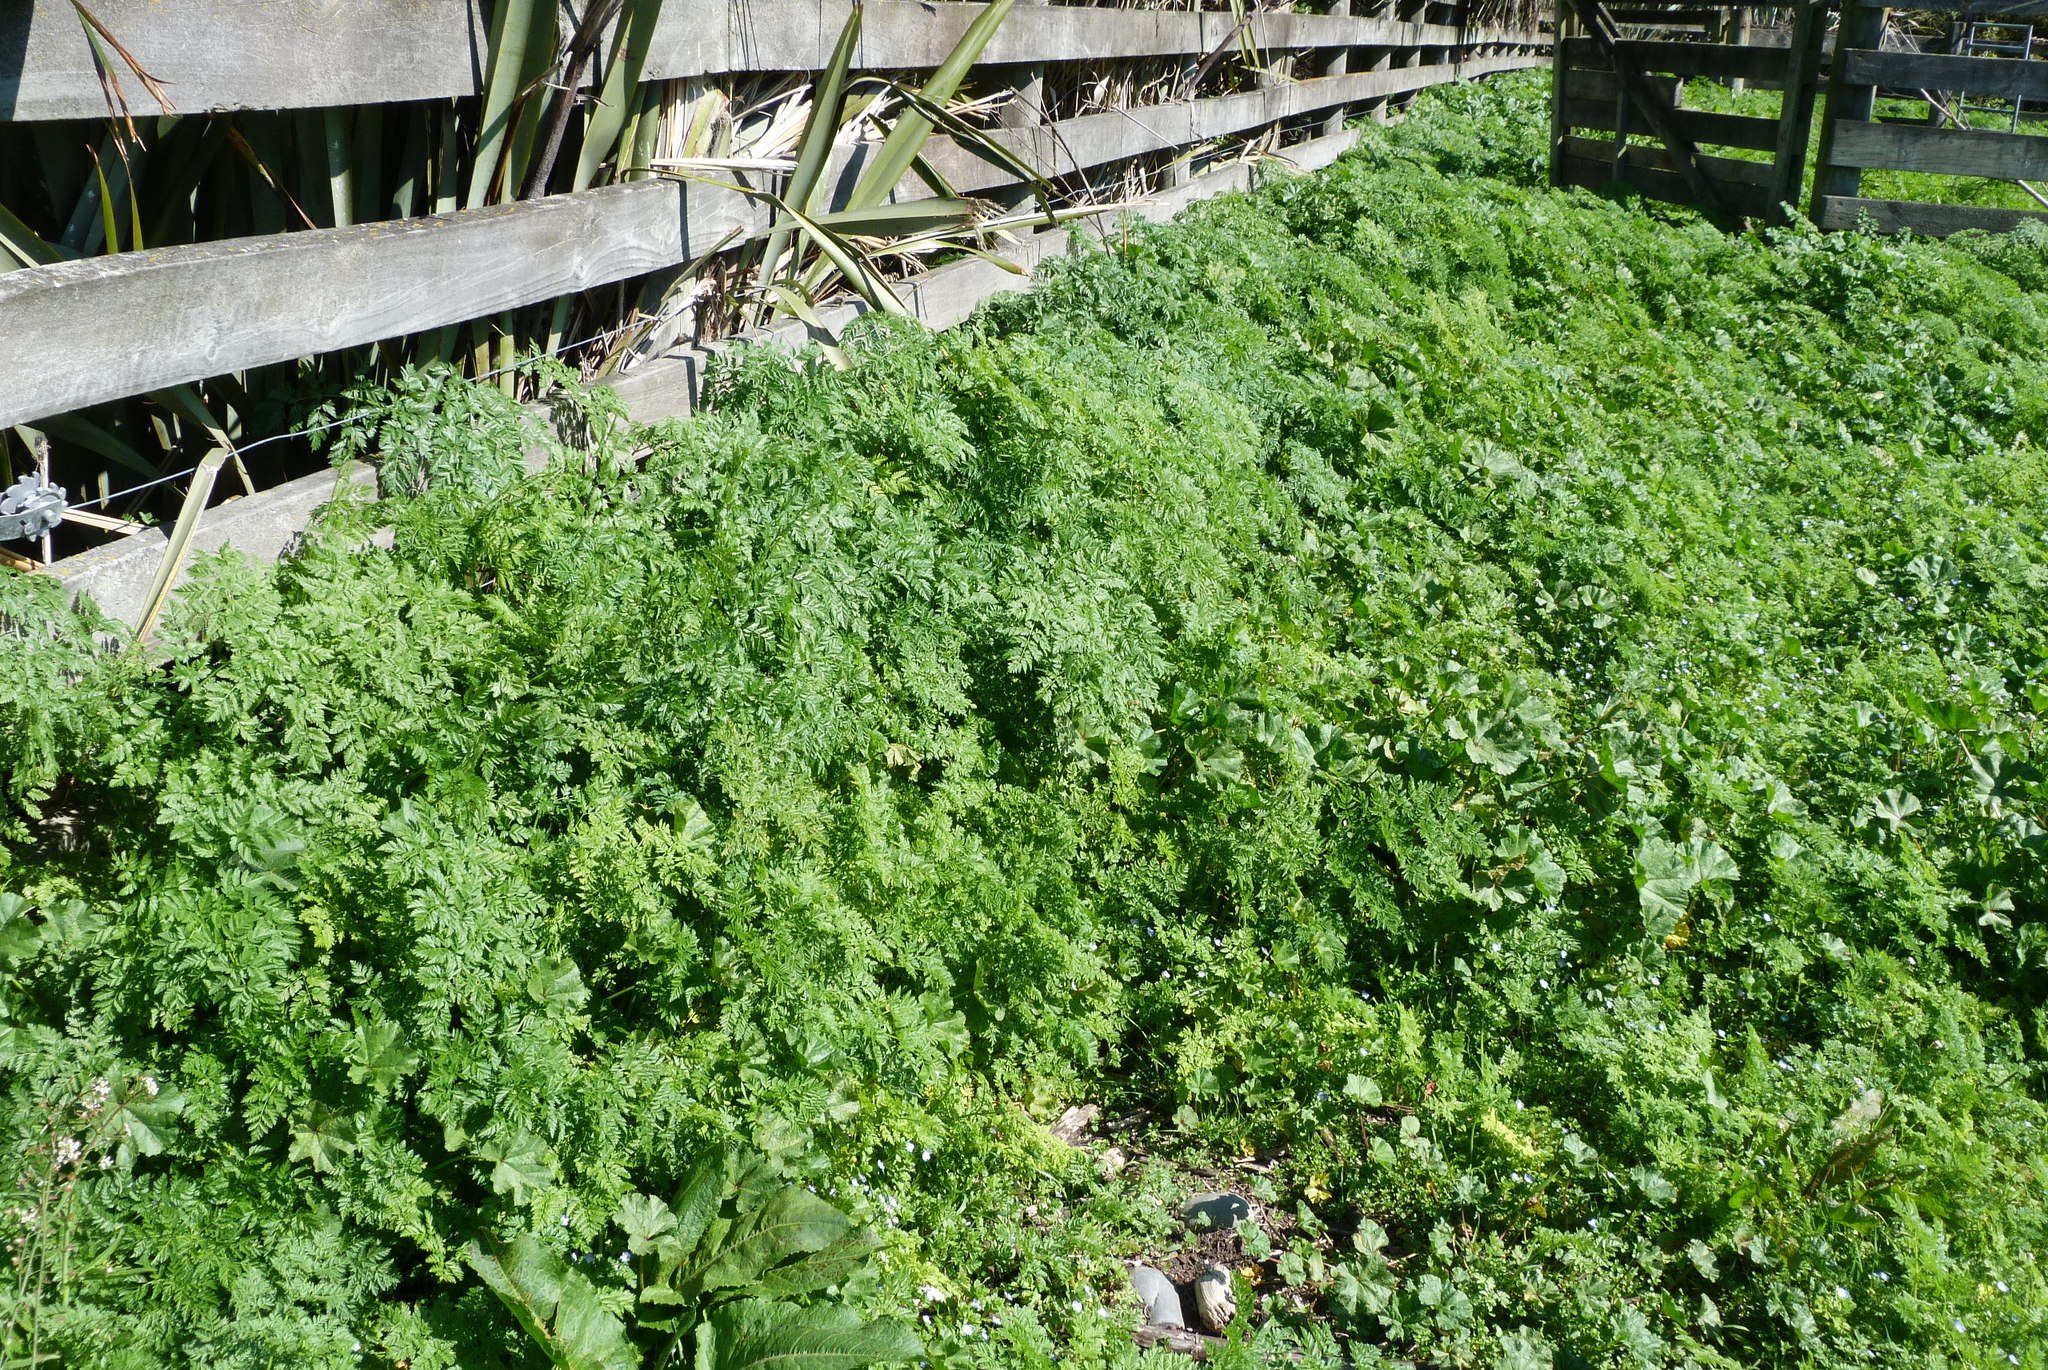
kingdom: Plantae
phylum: Tracheophyta
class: Magnoliopsida
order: Apiales
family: Apiaceae
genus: Conium
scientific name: Conium maculatum
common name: Hemlock
